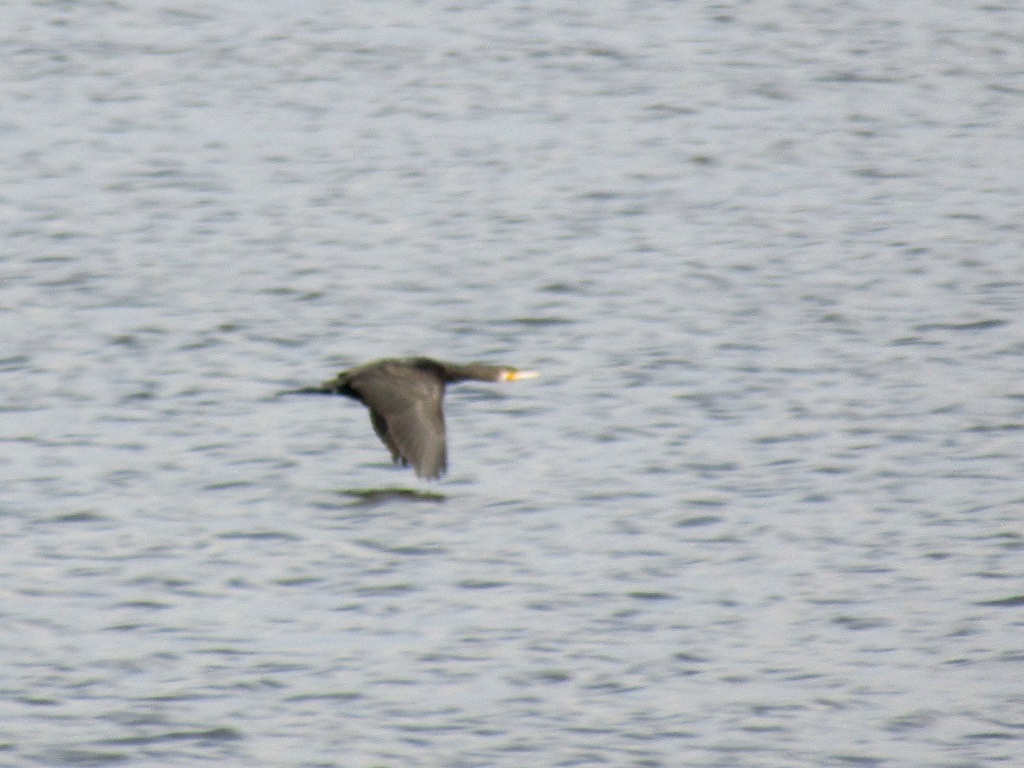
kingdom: Animalia
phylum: Chordata
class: Aves
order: Suliformes
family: Phalacrocoracidae
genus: Phalacrocorax
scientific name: Phalacrocorax carbo
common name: Great cormorant
